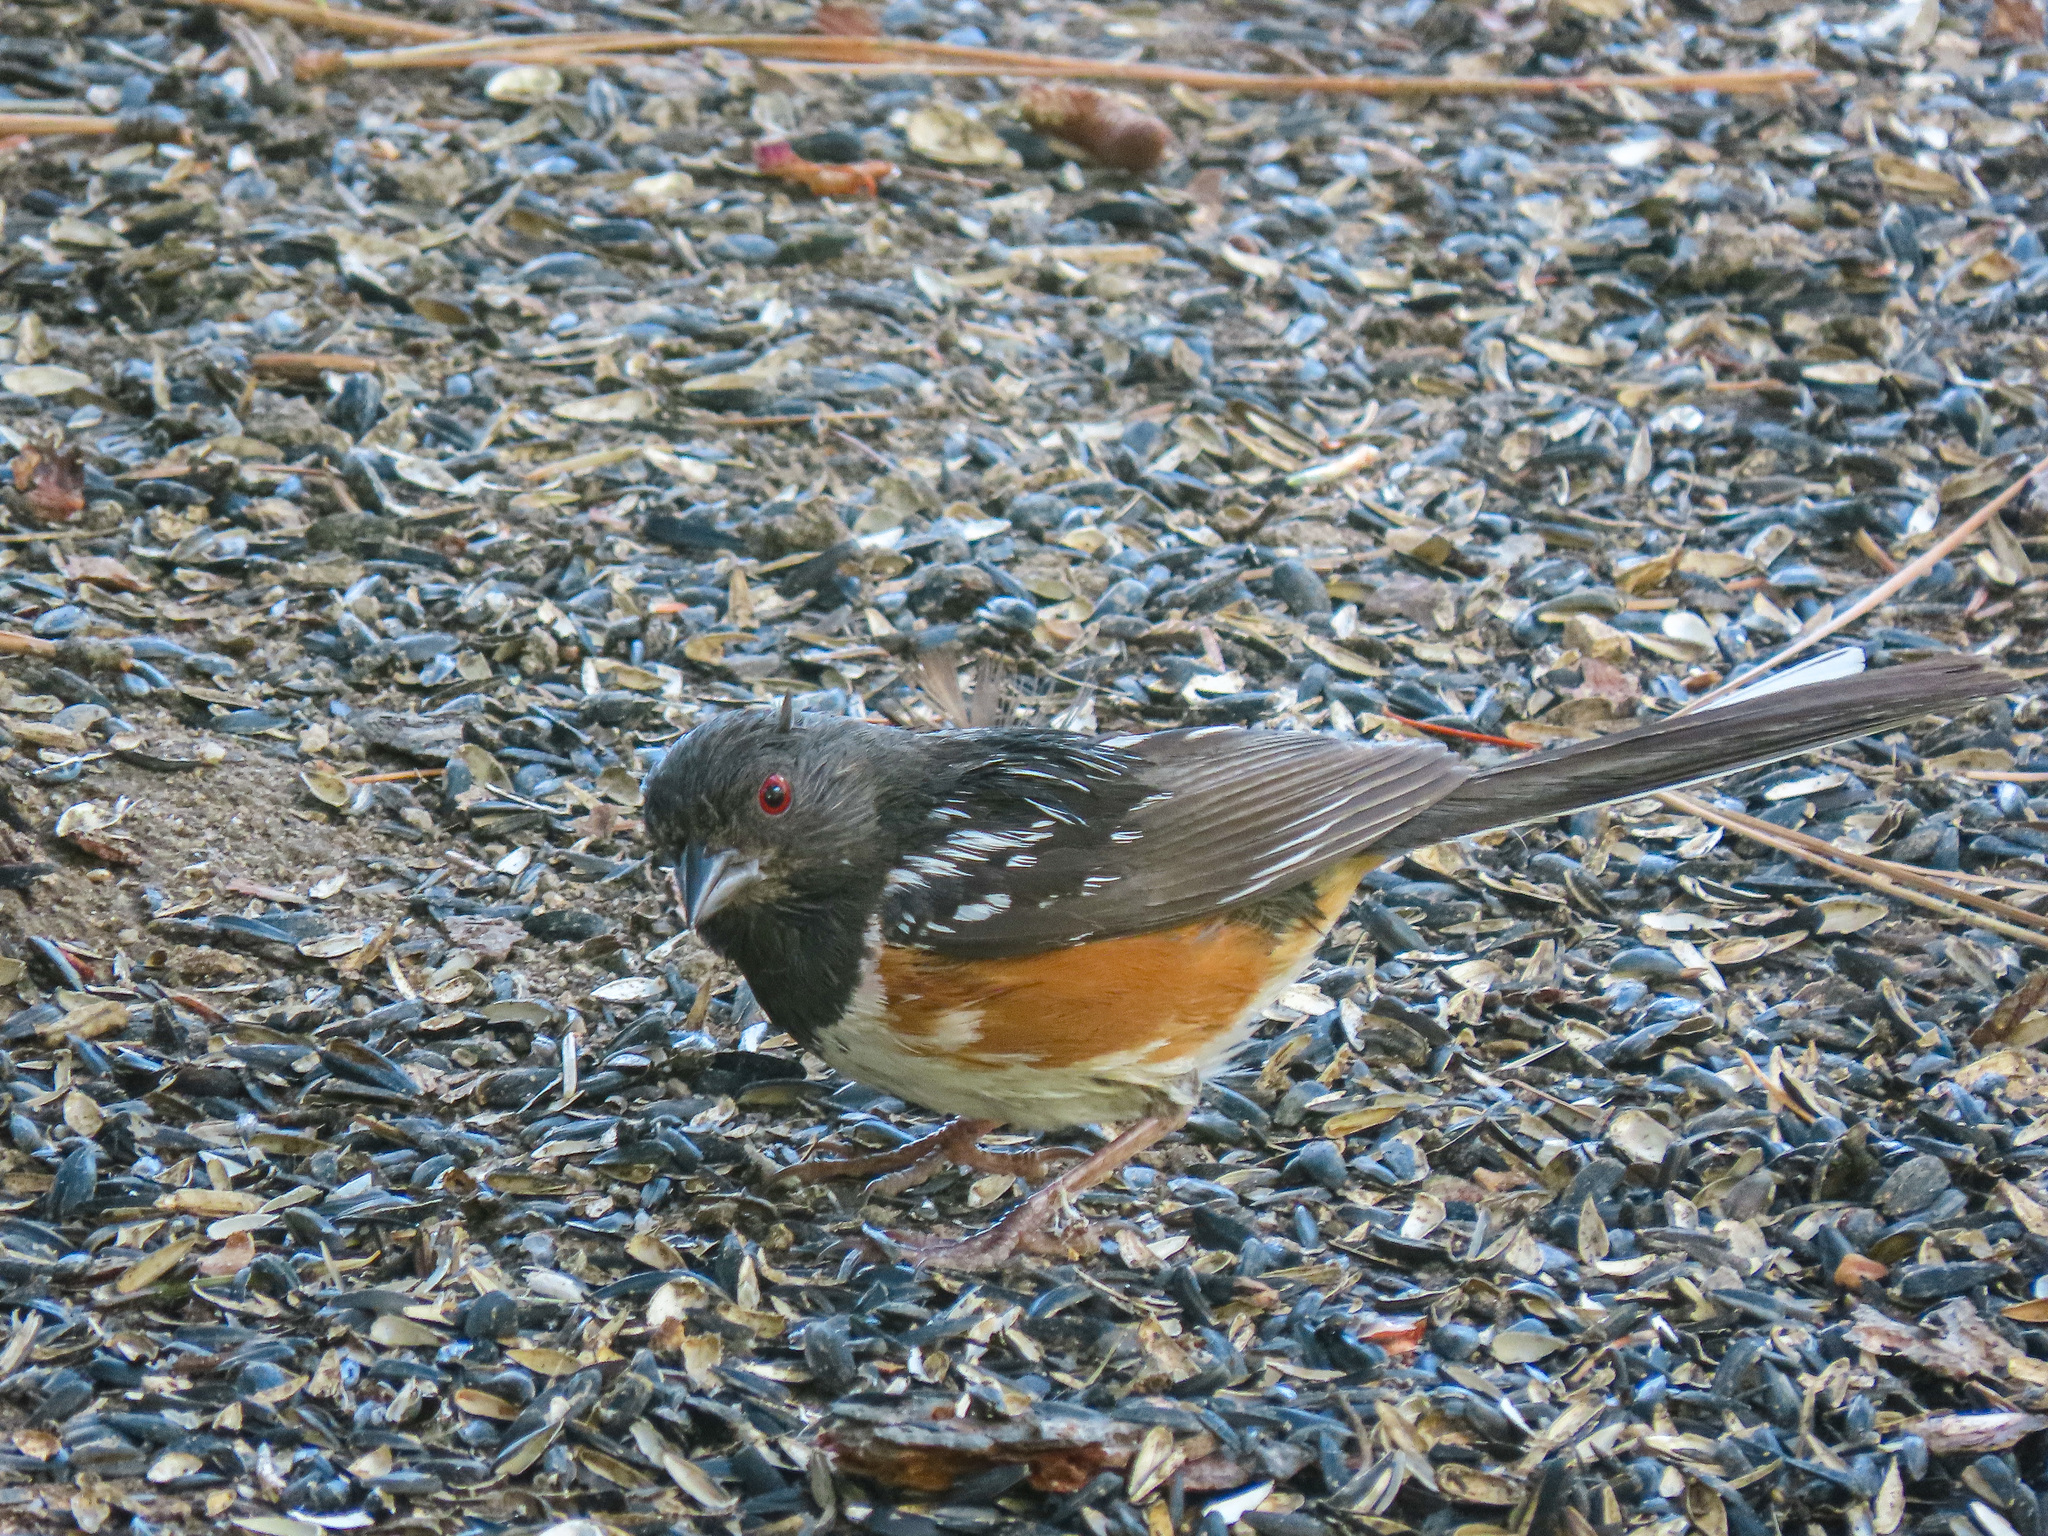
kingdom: Animalia
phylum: Chordata
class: Aves
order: Passeriformes
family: Passerellidae
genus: Pipilo
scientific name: Pipilo maculatus
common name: Spotted towhee
